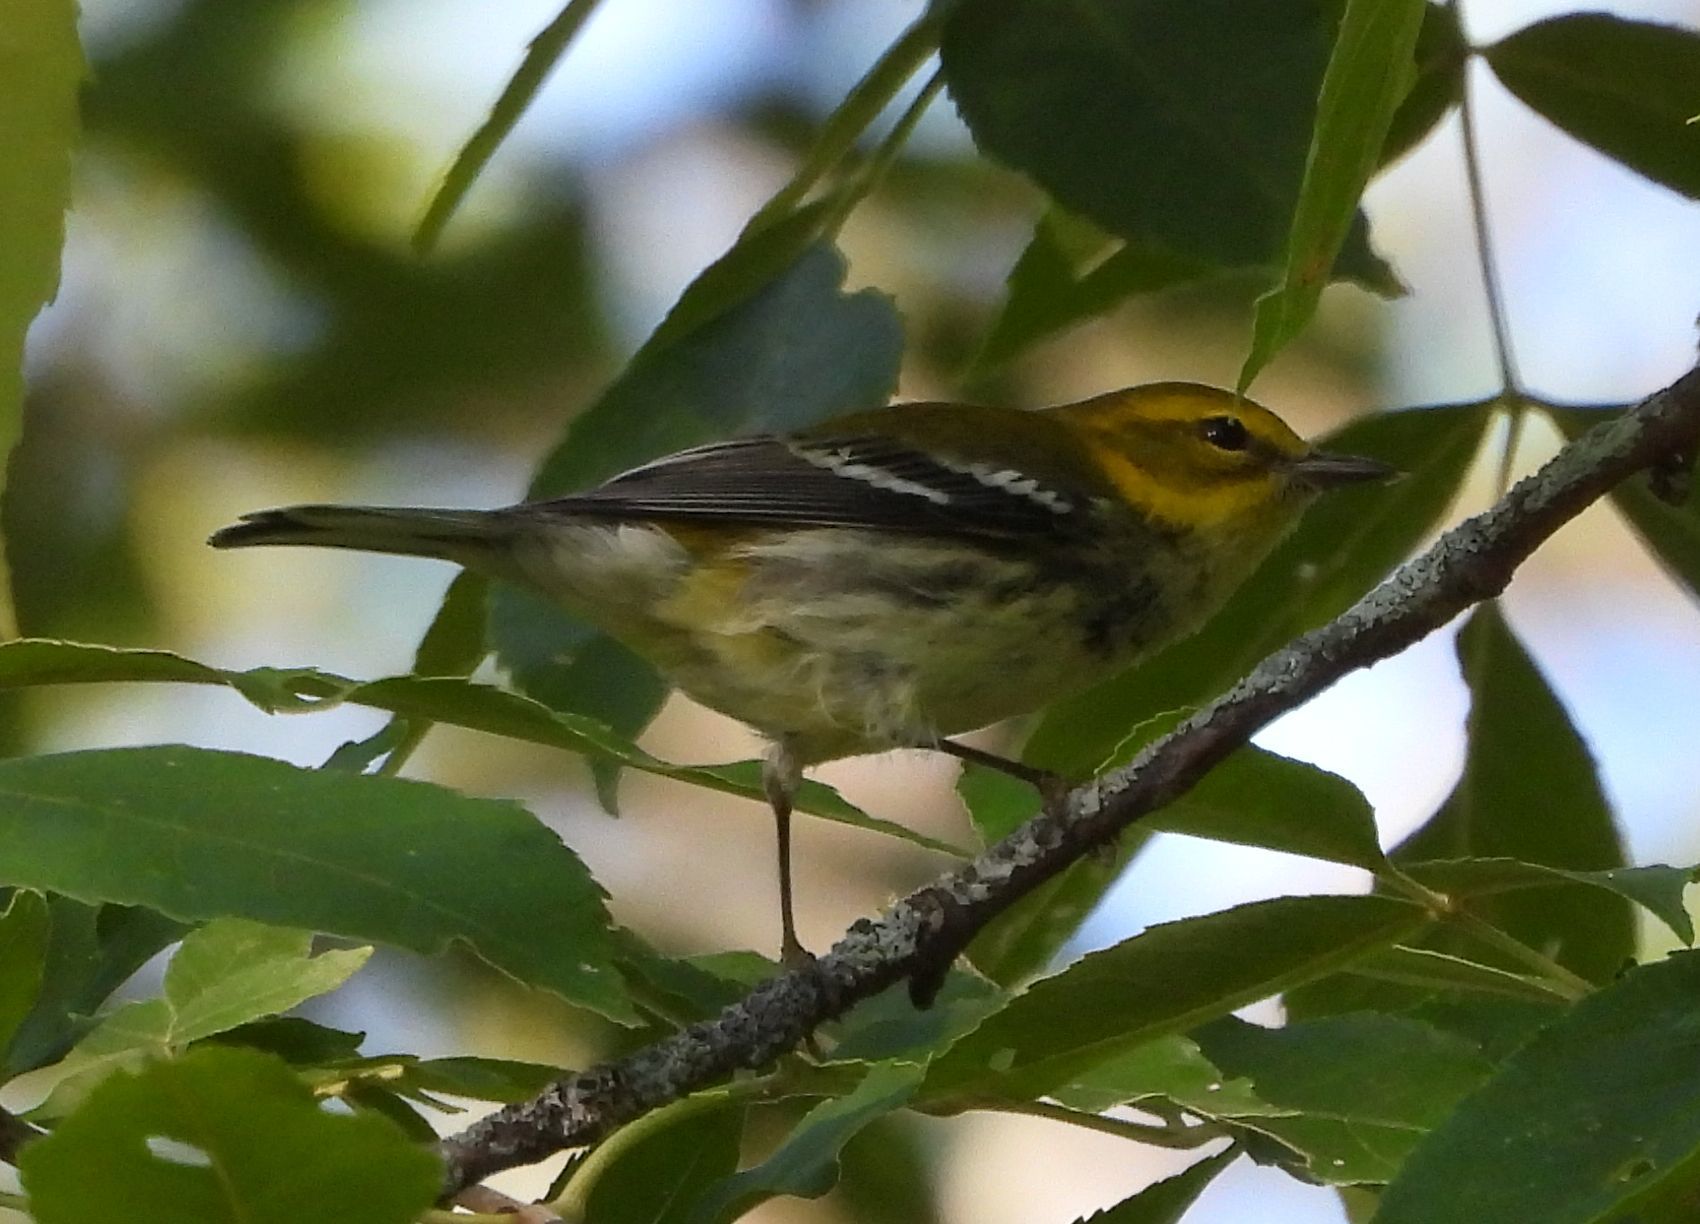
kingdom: Animalia
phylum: Chordata
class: Aves
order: Passeriformes
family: Parulidae
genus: Setophaga
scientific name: Setophaga virens
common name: Black-throated green warbler
